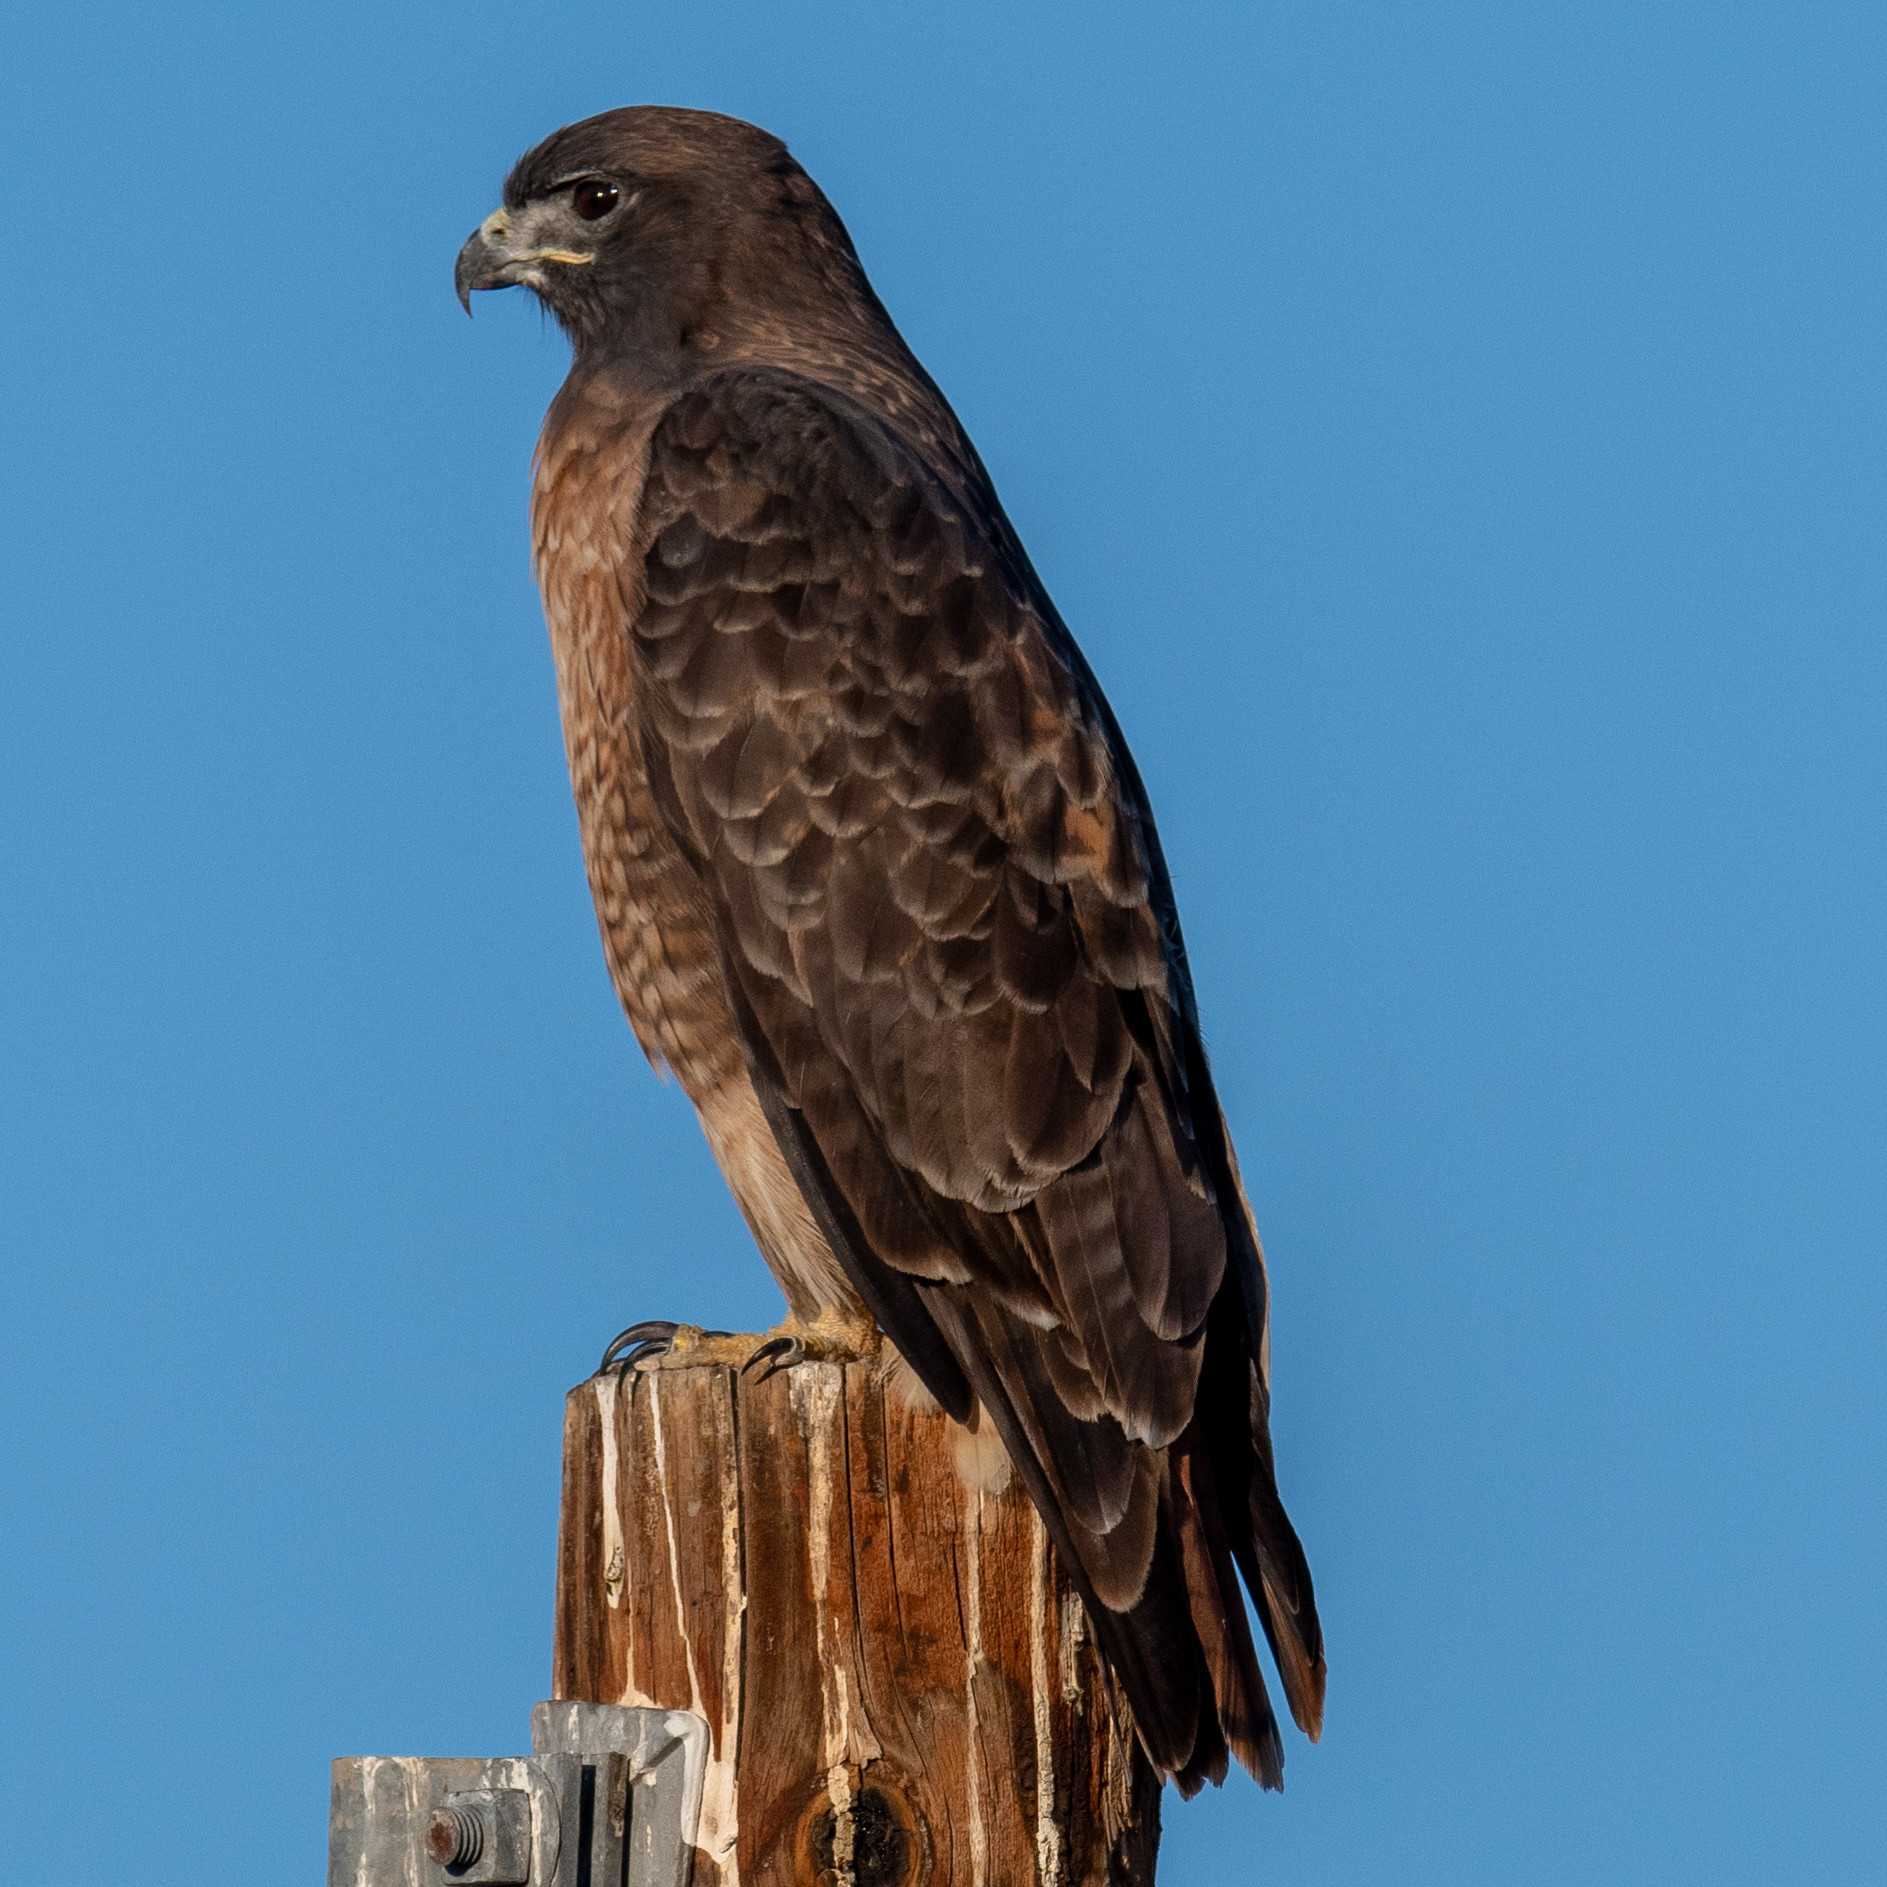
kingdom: Animalia
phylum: Chordata
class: Aves
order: Accipitriformes
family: Accipitridae
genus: Buteo
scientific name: Buteo jamaicensis
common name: Red-tailed hawk
